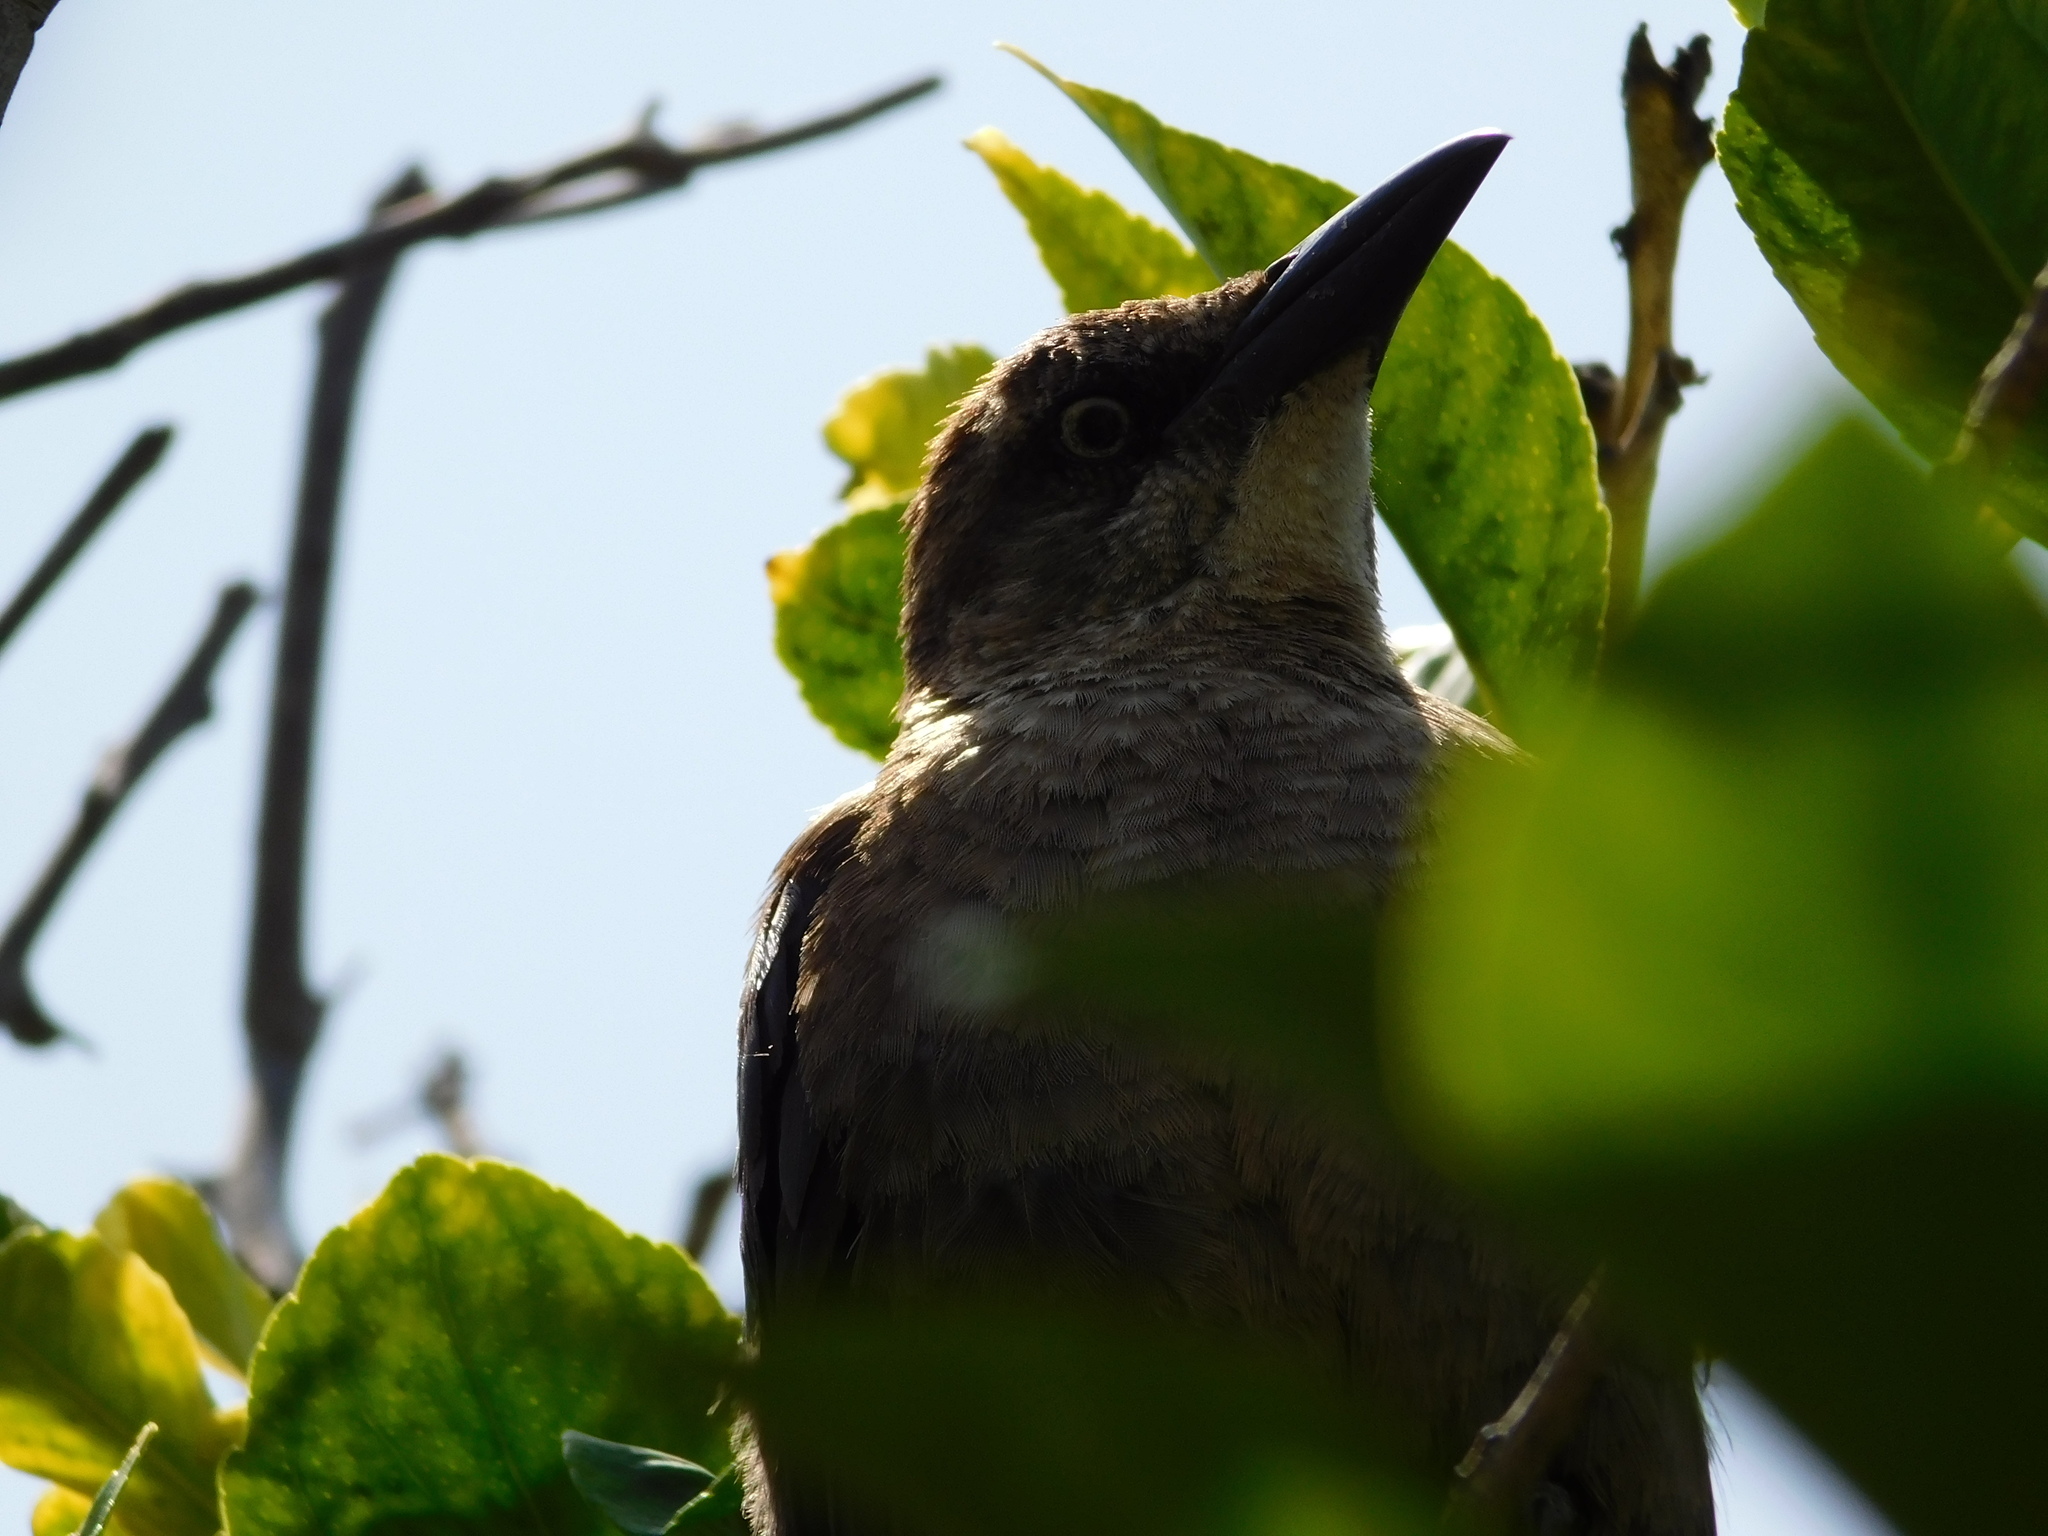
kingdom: Animalia
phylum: Chordata
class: Aves
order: Passeriformes
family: Icteridae
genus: Quiscalus
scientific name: Quiscalus mexicanus
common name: Great-tailed grackle
